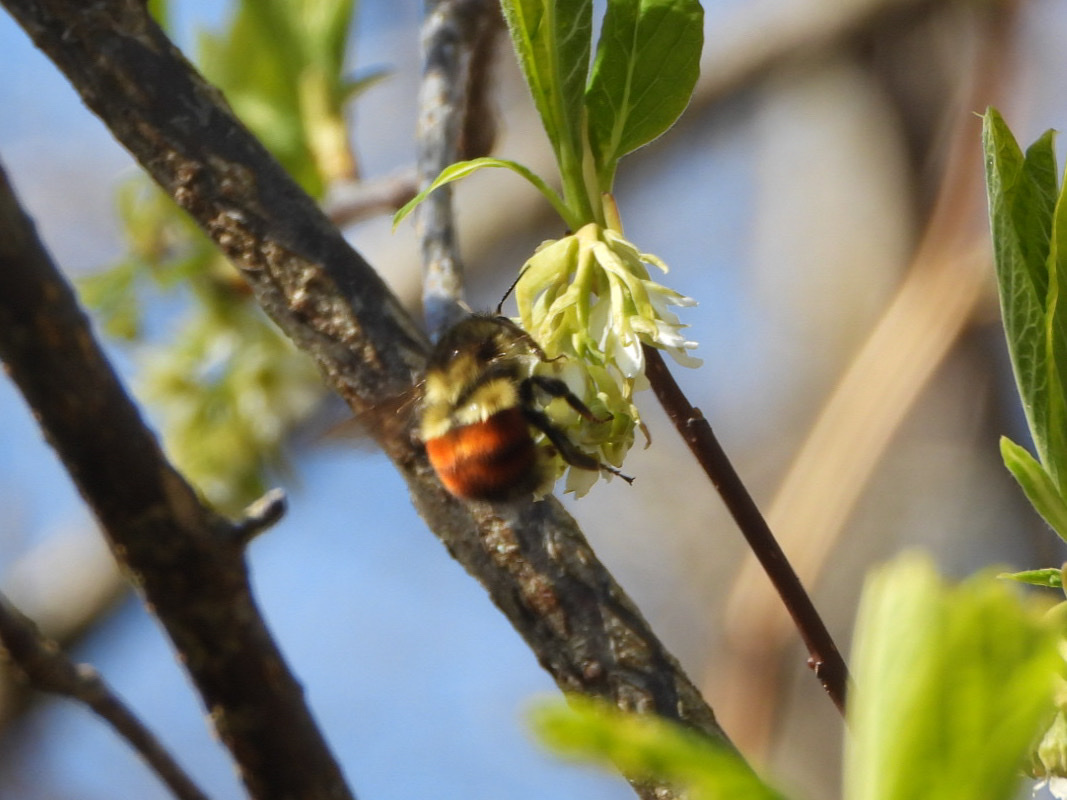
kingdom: Animalia
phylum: Arthropoda
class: Insecta
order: Hymenoptera
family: Apidae
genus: Bombus
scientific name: Bombus melanopygus
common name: Black tail bumble bee
